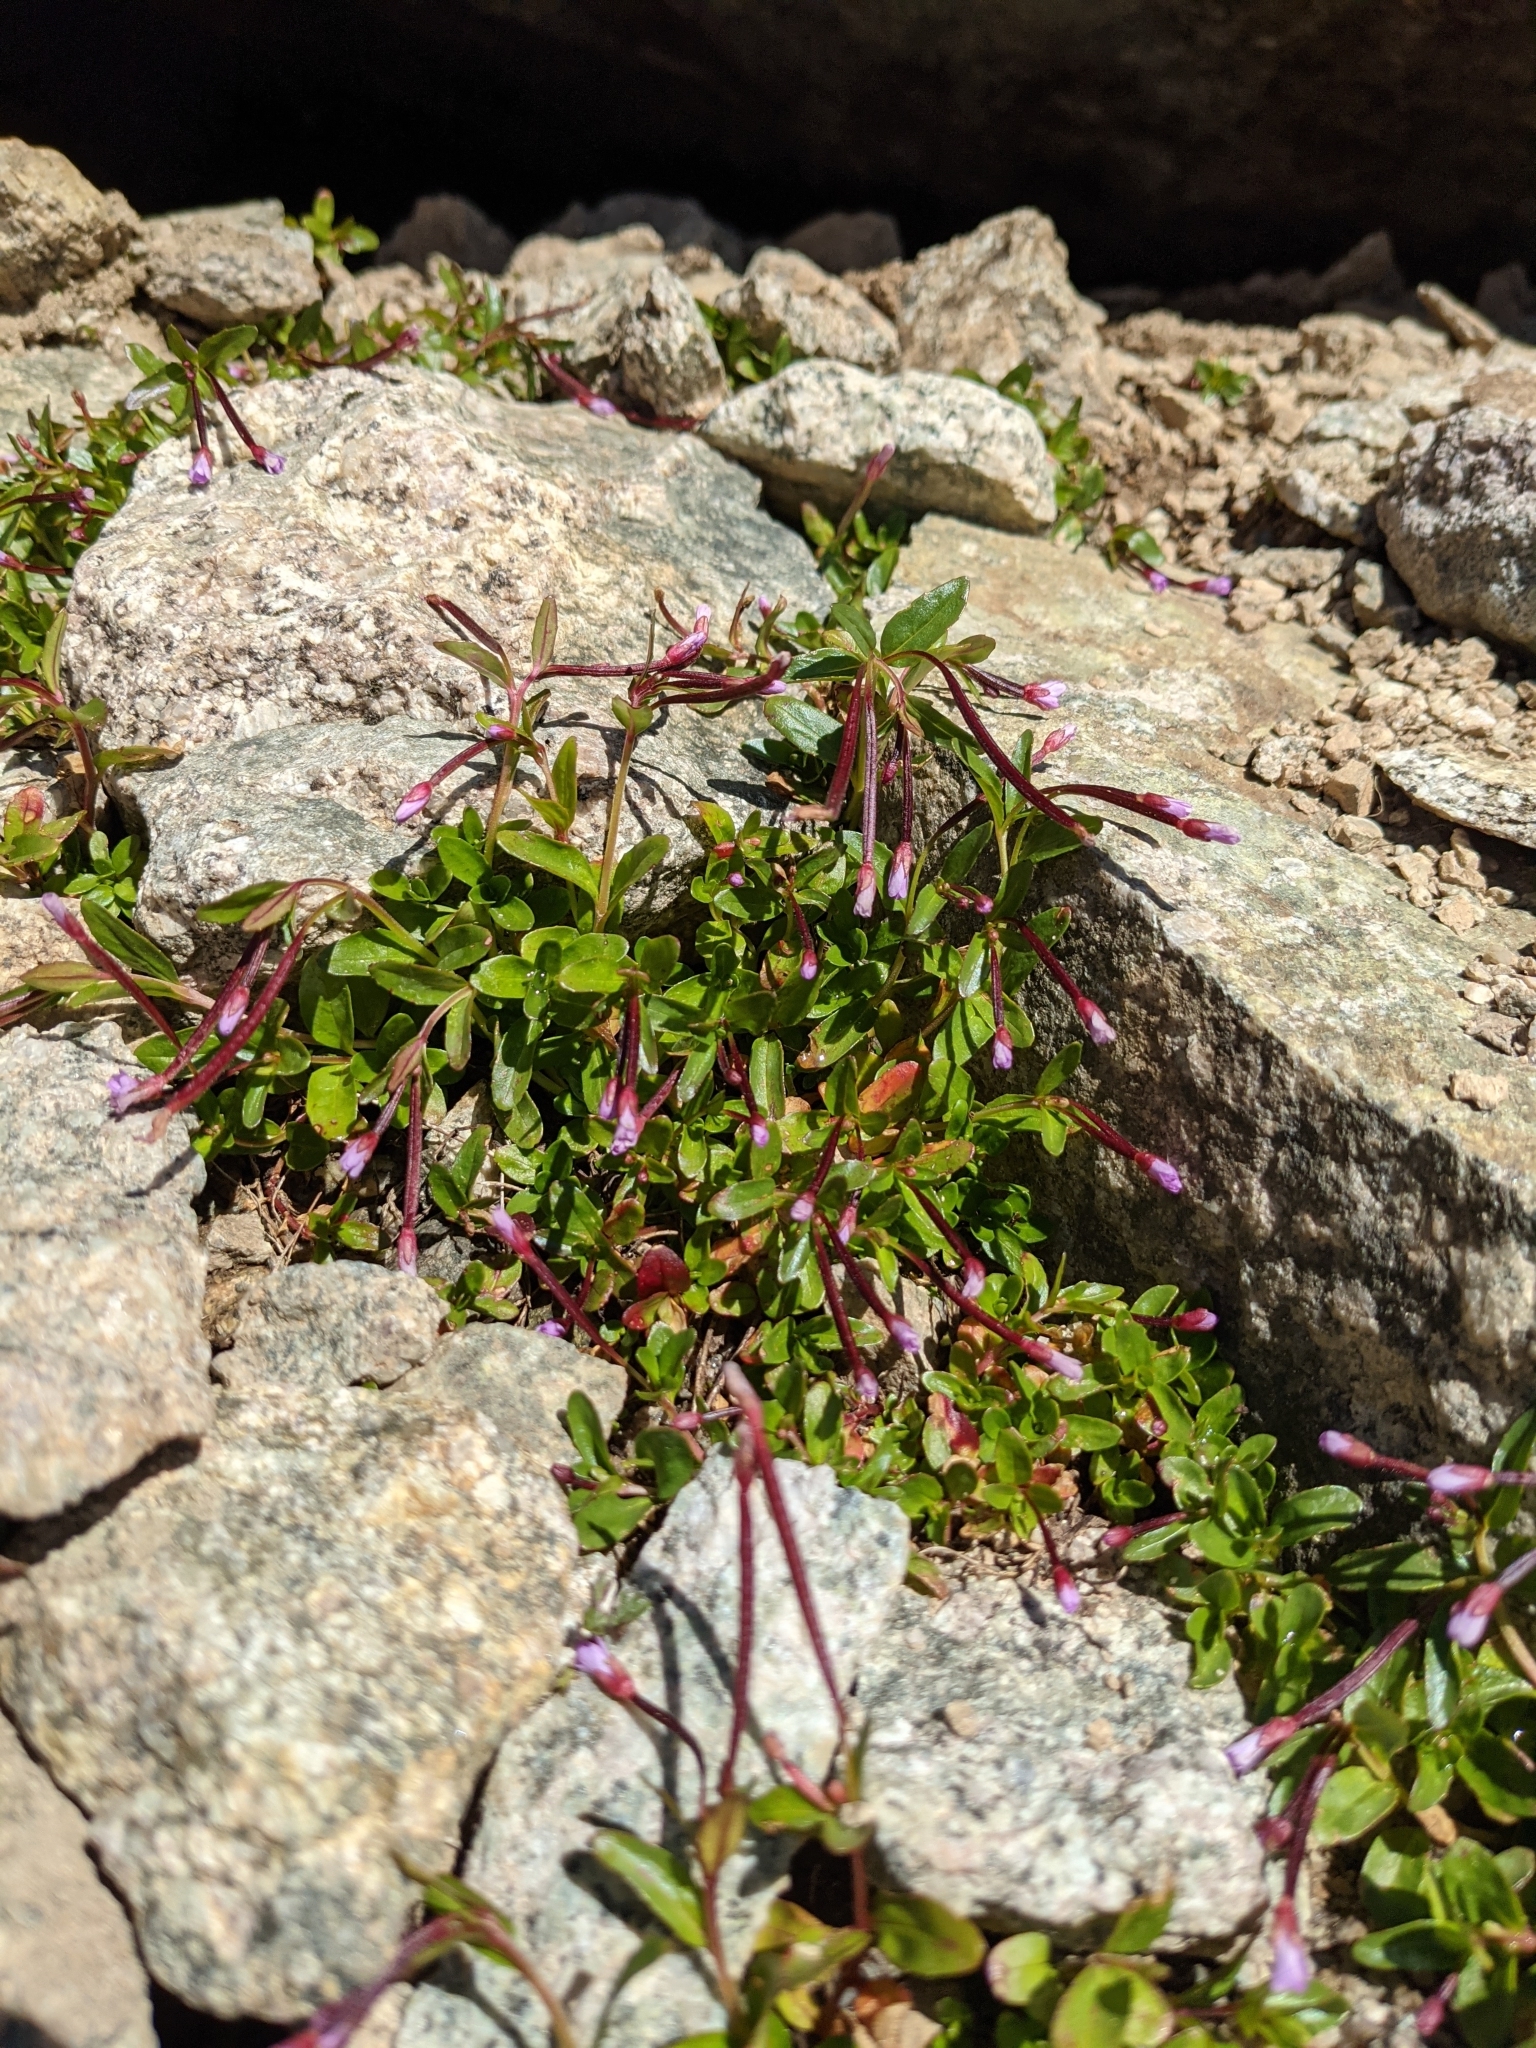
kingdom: Plantae
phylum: Tracheophyta
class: Magnoliopsida
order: Myrtales
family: Onagraceae
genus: Epilobium
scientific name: Epilobium anagallidifolium
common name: Alpine willowherb
